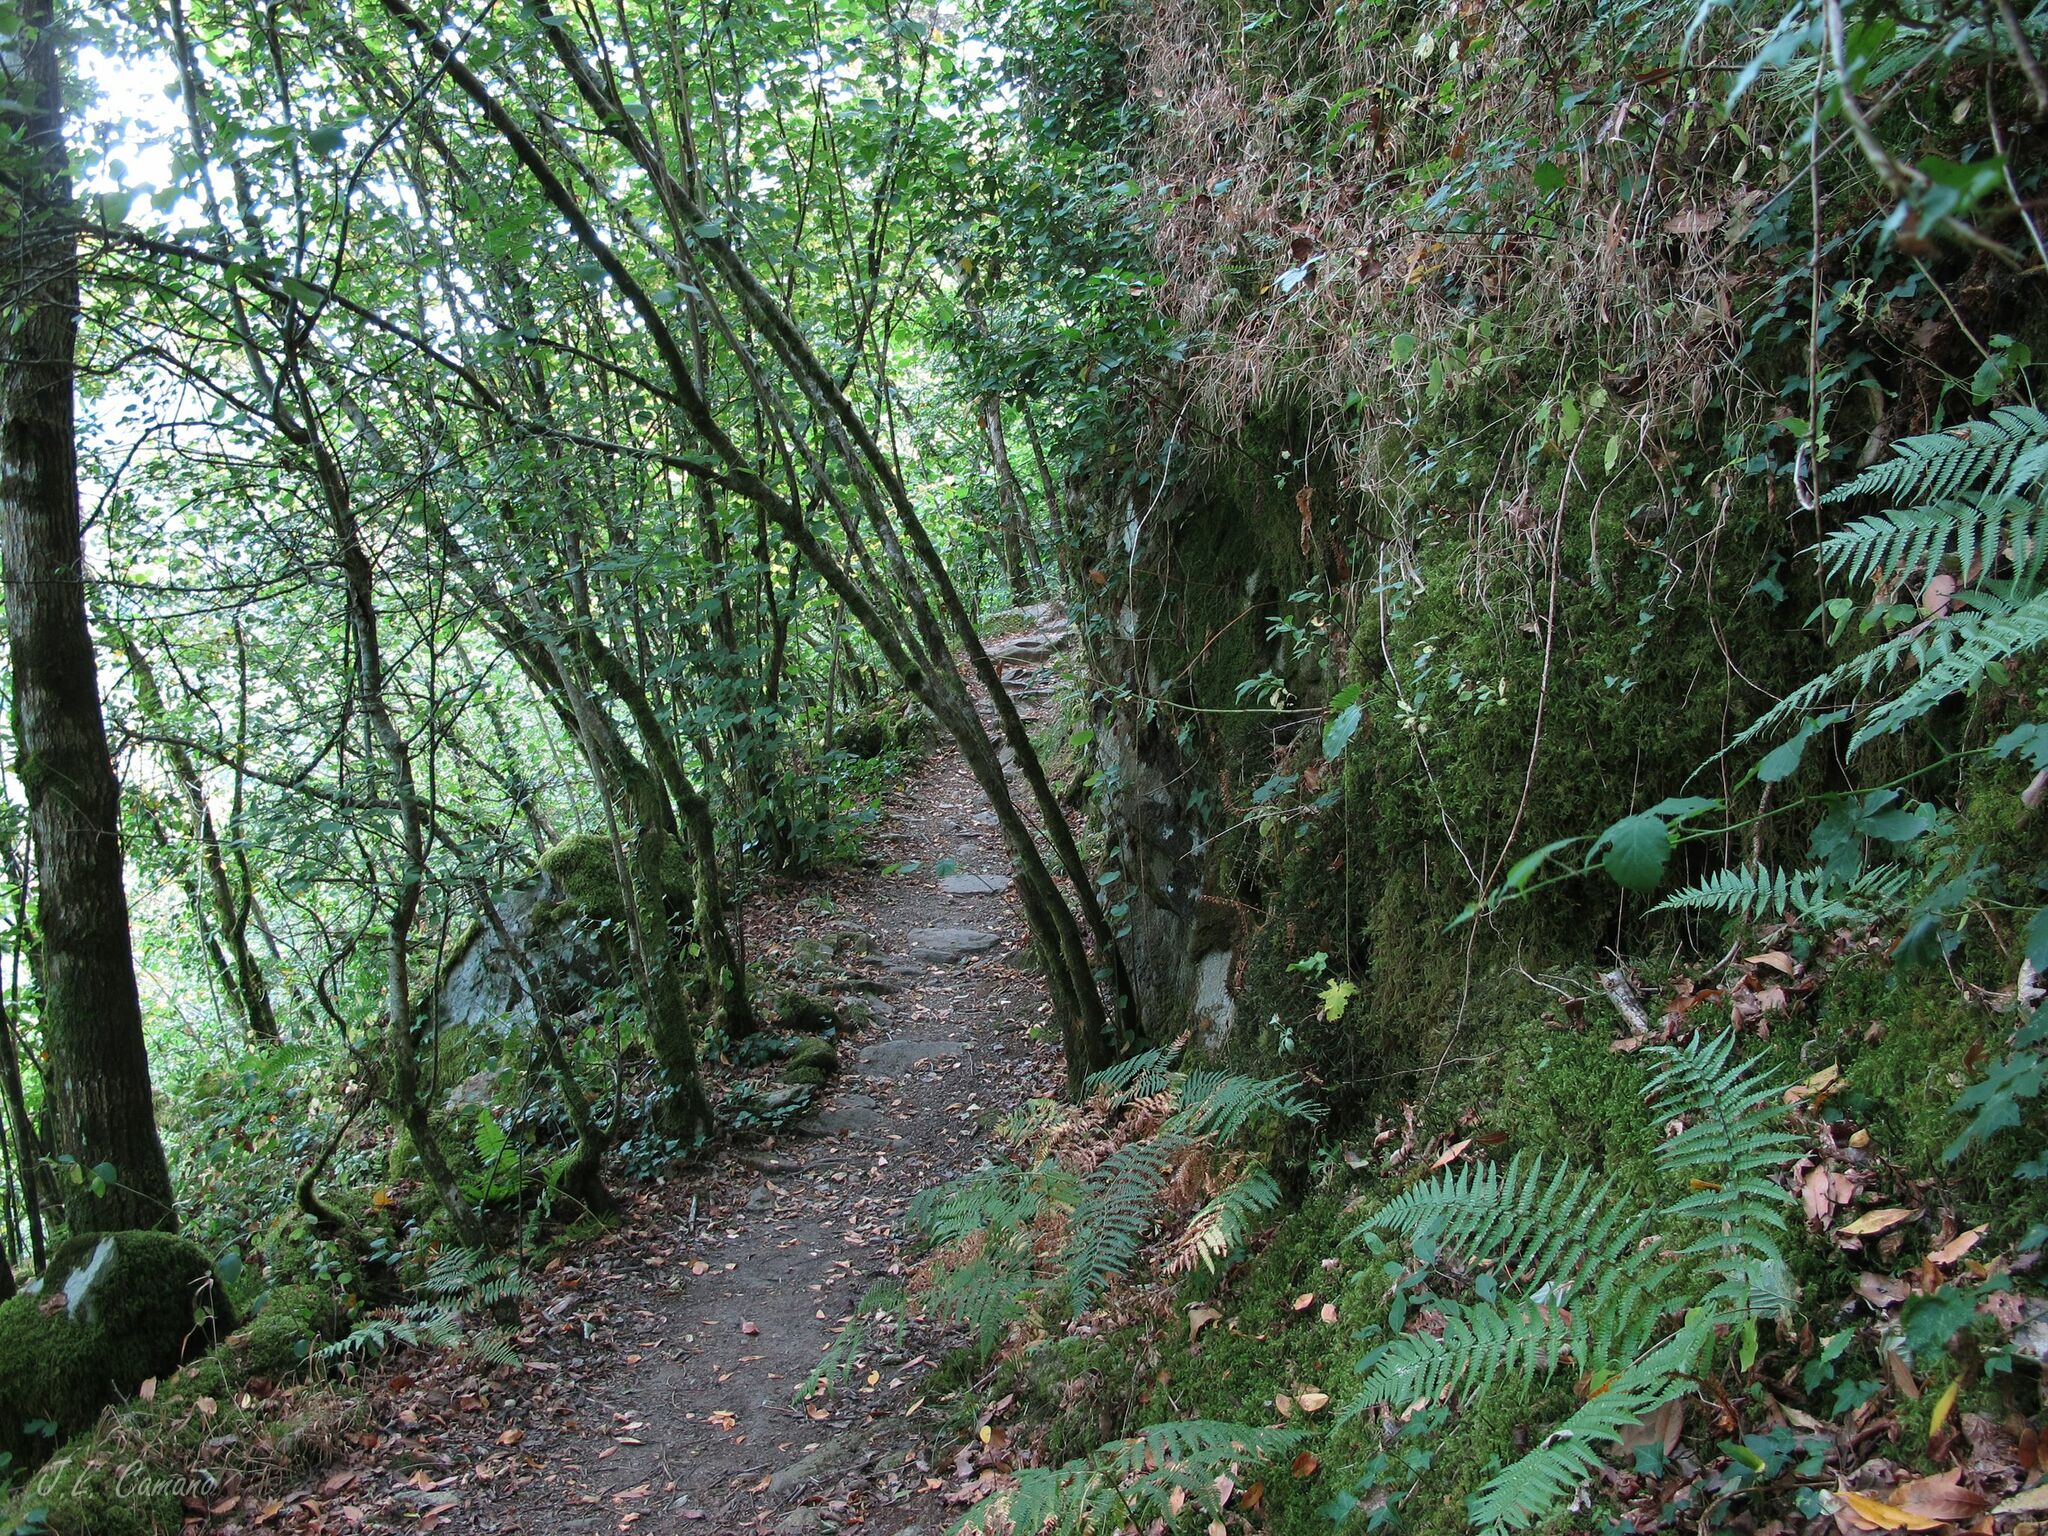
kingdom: Plantae
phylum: Bryophyta
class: Bryopsida
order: Hypnales
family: Plagiotheciaceae
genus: Plagiothecium
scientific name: Plagiothecium undulatum
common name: Waved silk-moss
